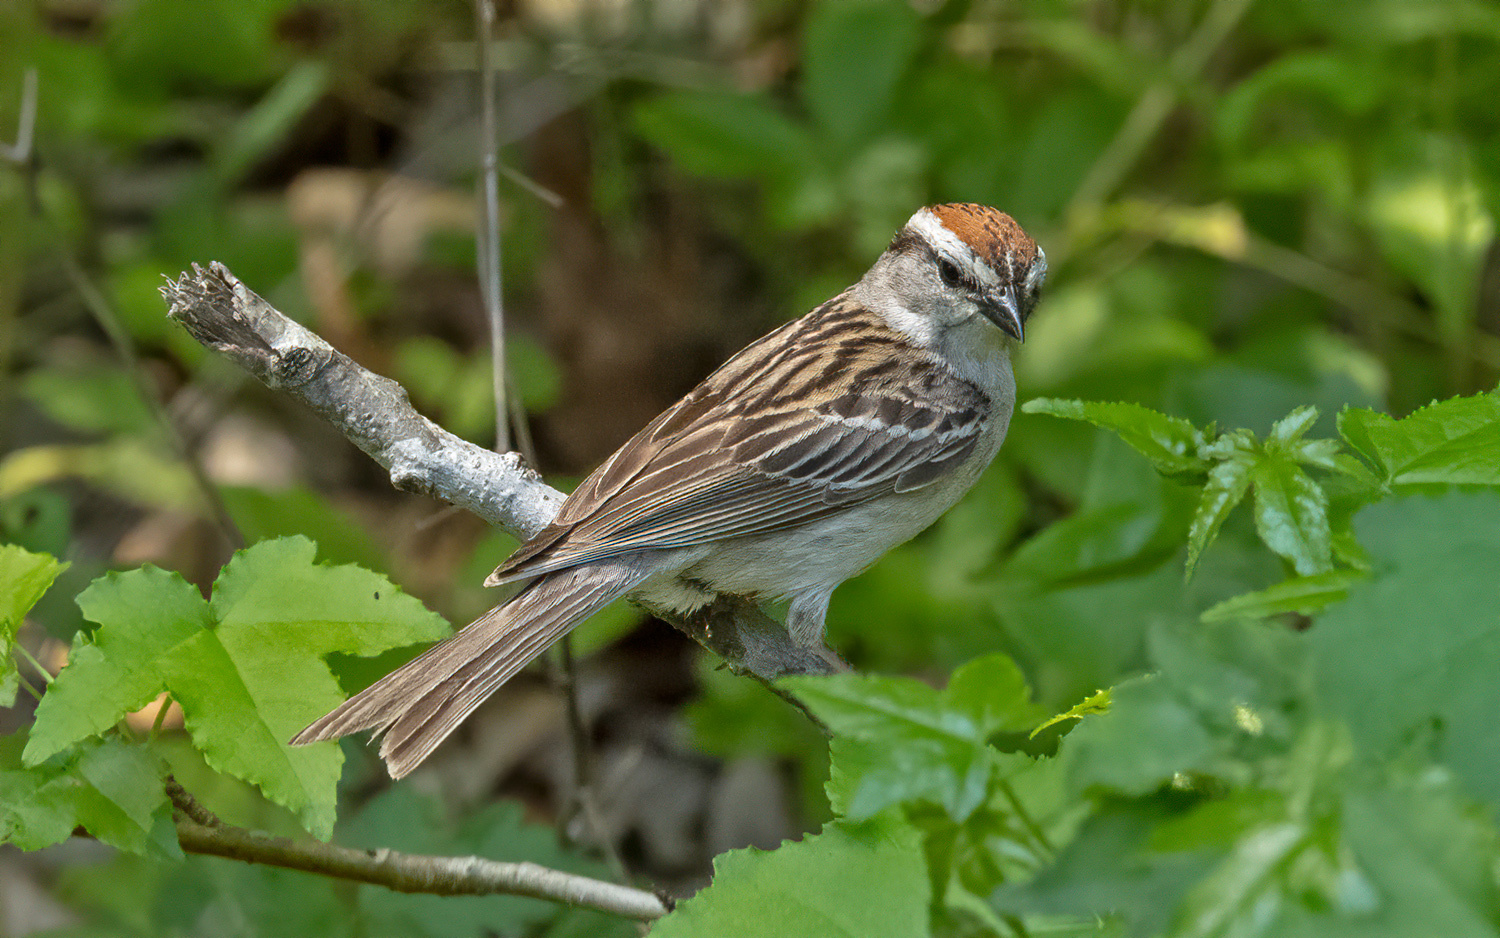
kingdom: Animalia
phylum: Chordata
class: Aves
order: Passeriformes
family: Passerellidae
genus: Spizella
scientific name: Spizella passerina
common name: Chipping sparrow
